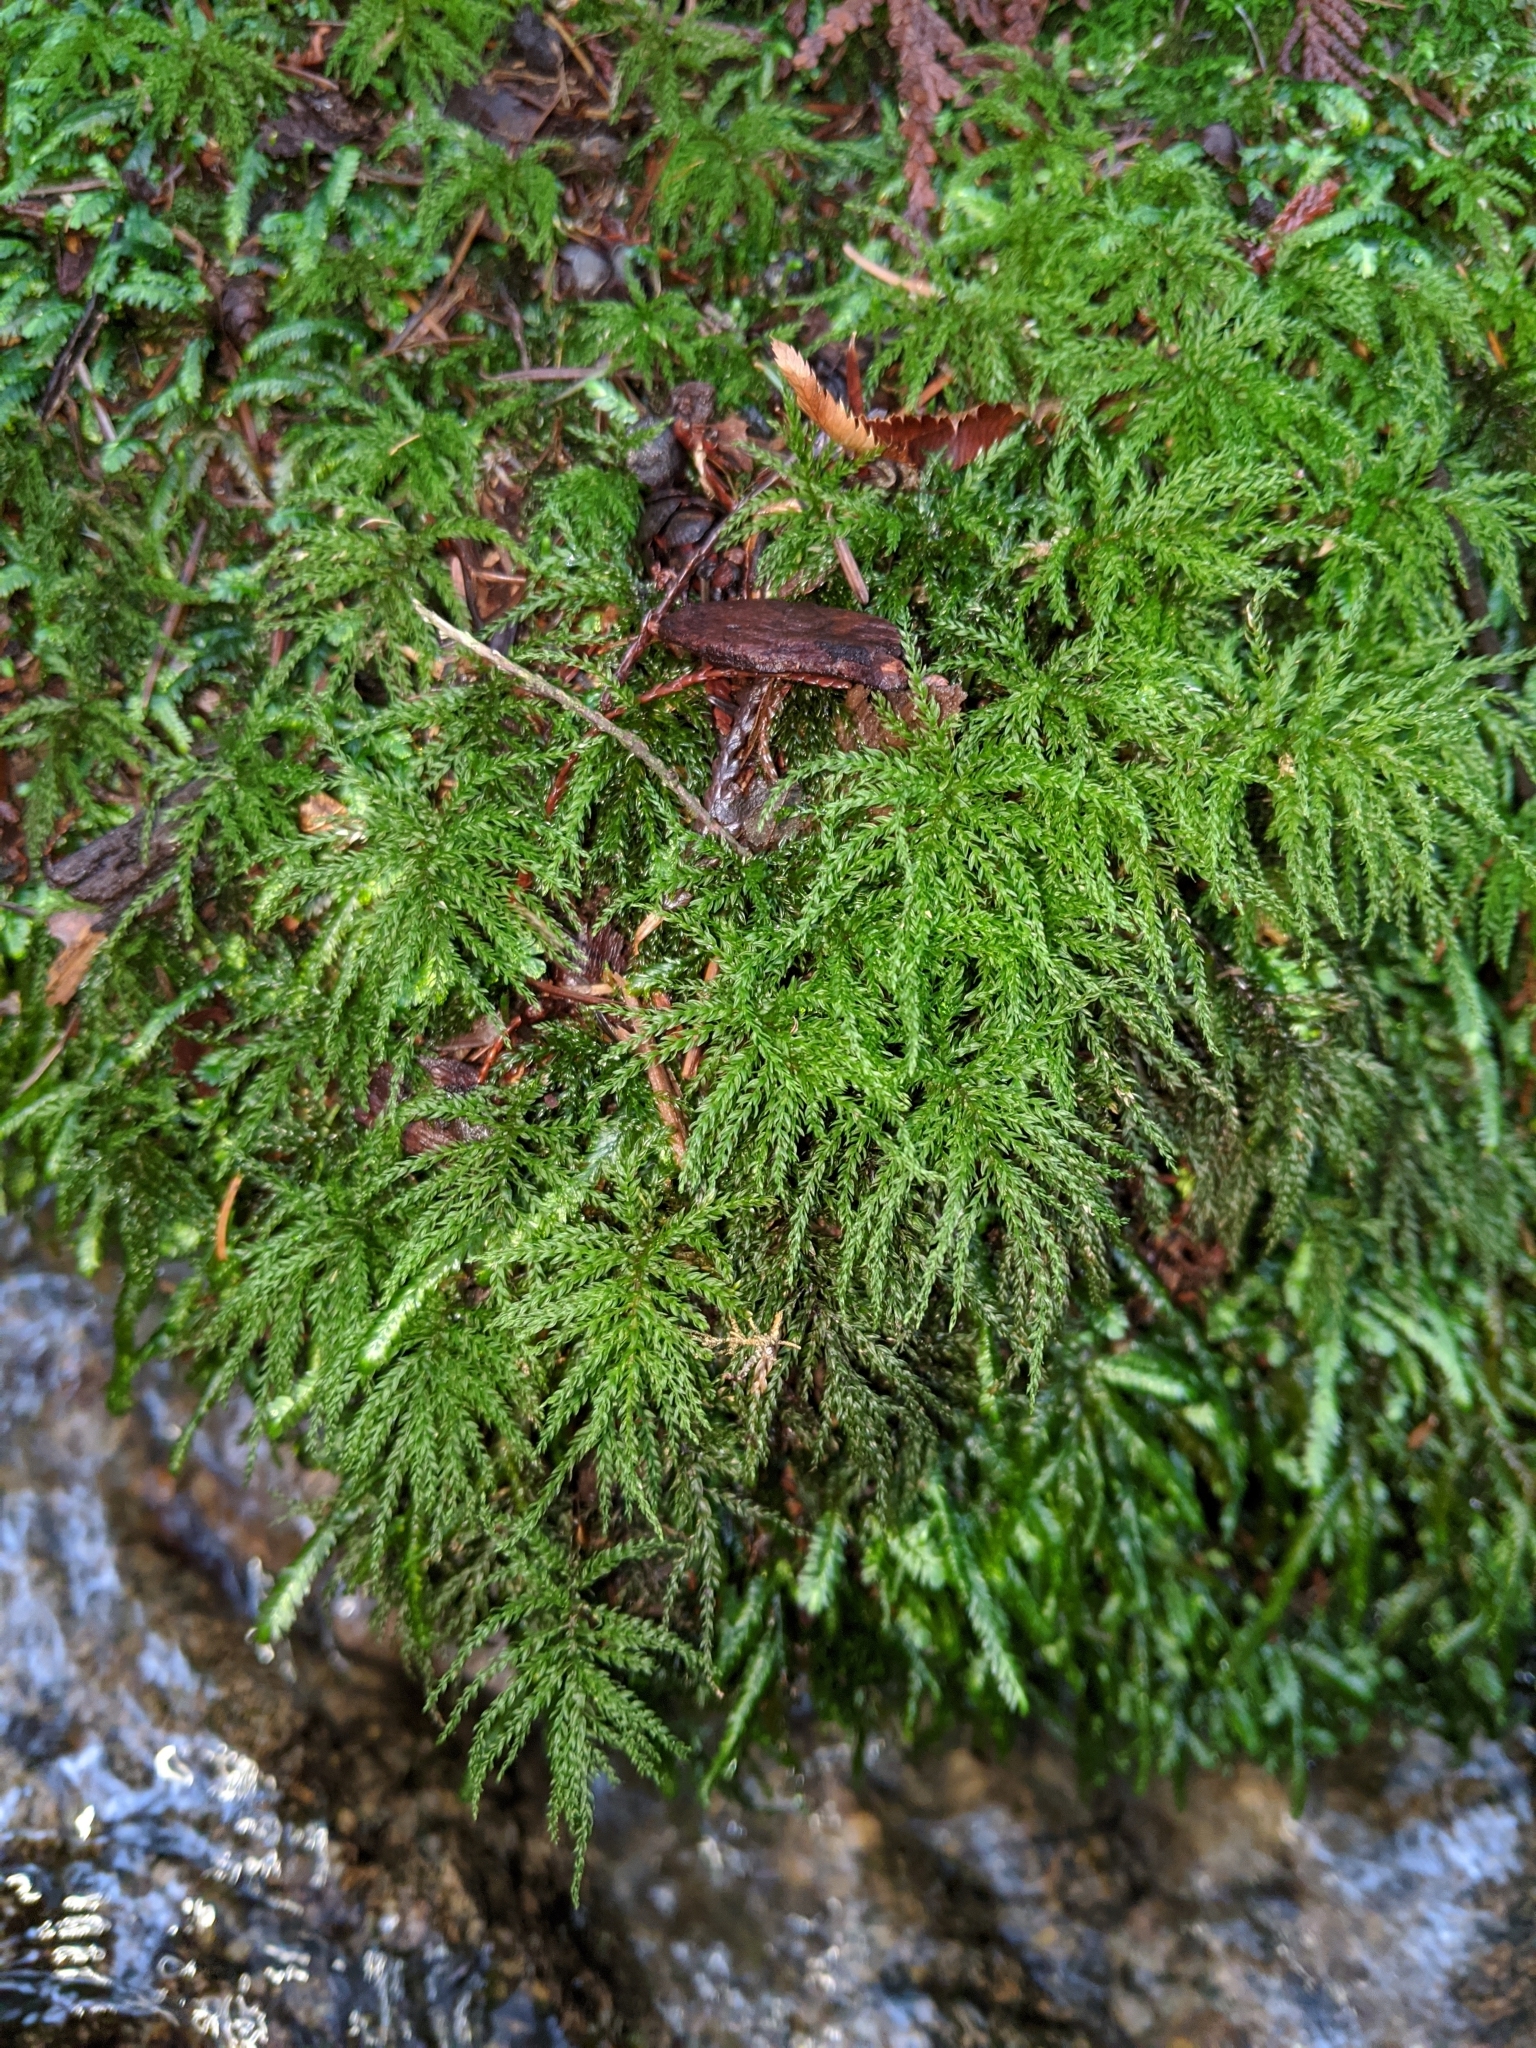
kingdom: Plantae
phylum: Bryophyta
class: Bryopsida
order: Bryales
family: Mniaceae
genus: Leucolepis
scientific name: Leucolepis acanthoneura
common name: Leucolepis umbrella moss
